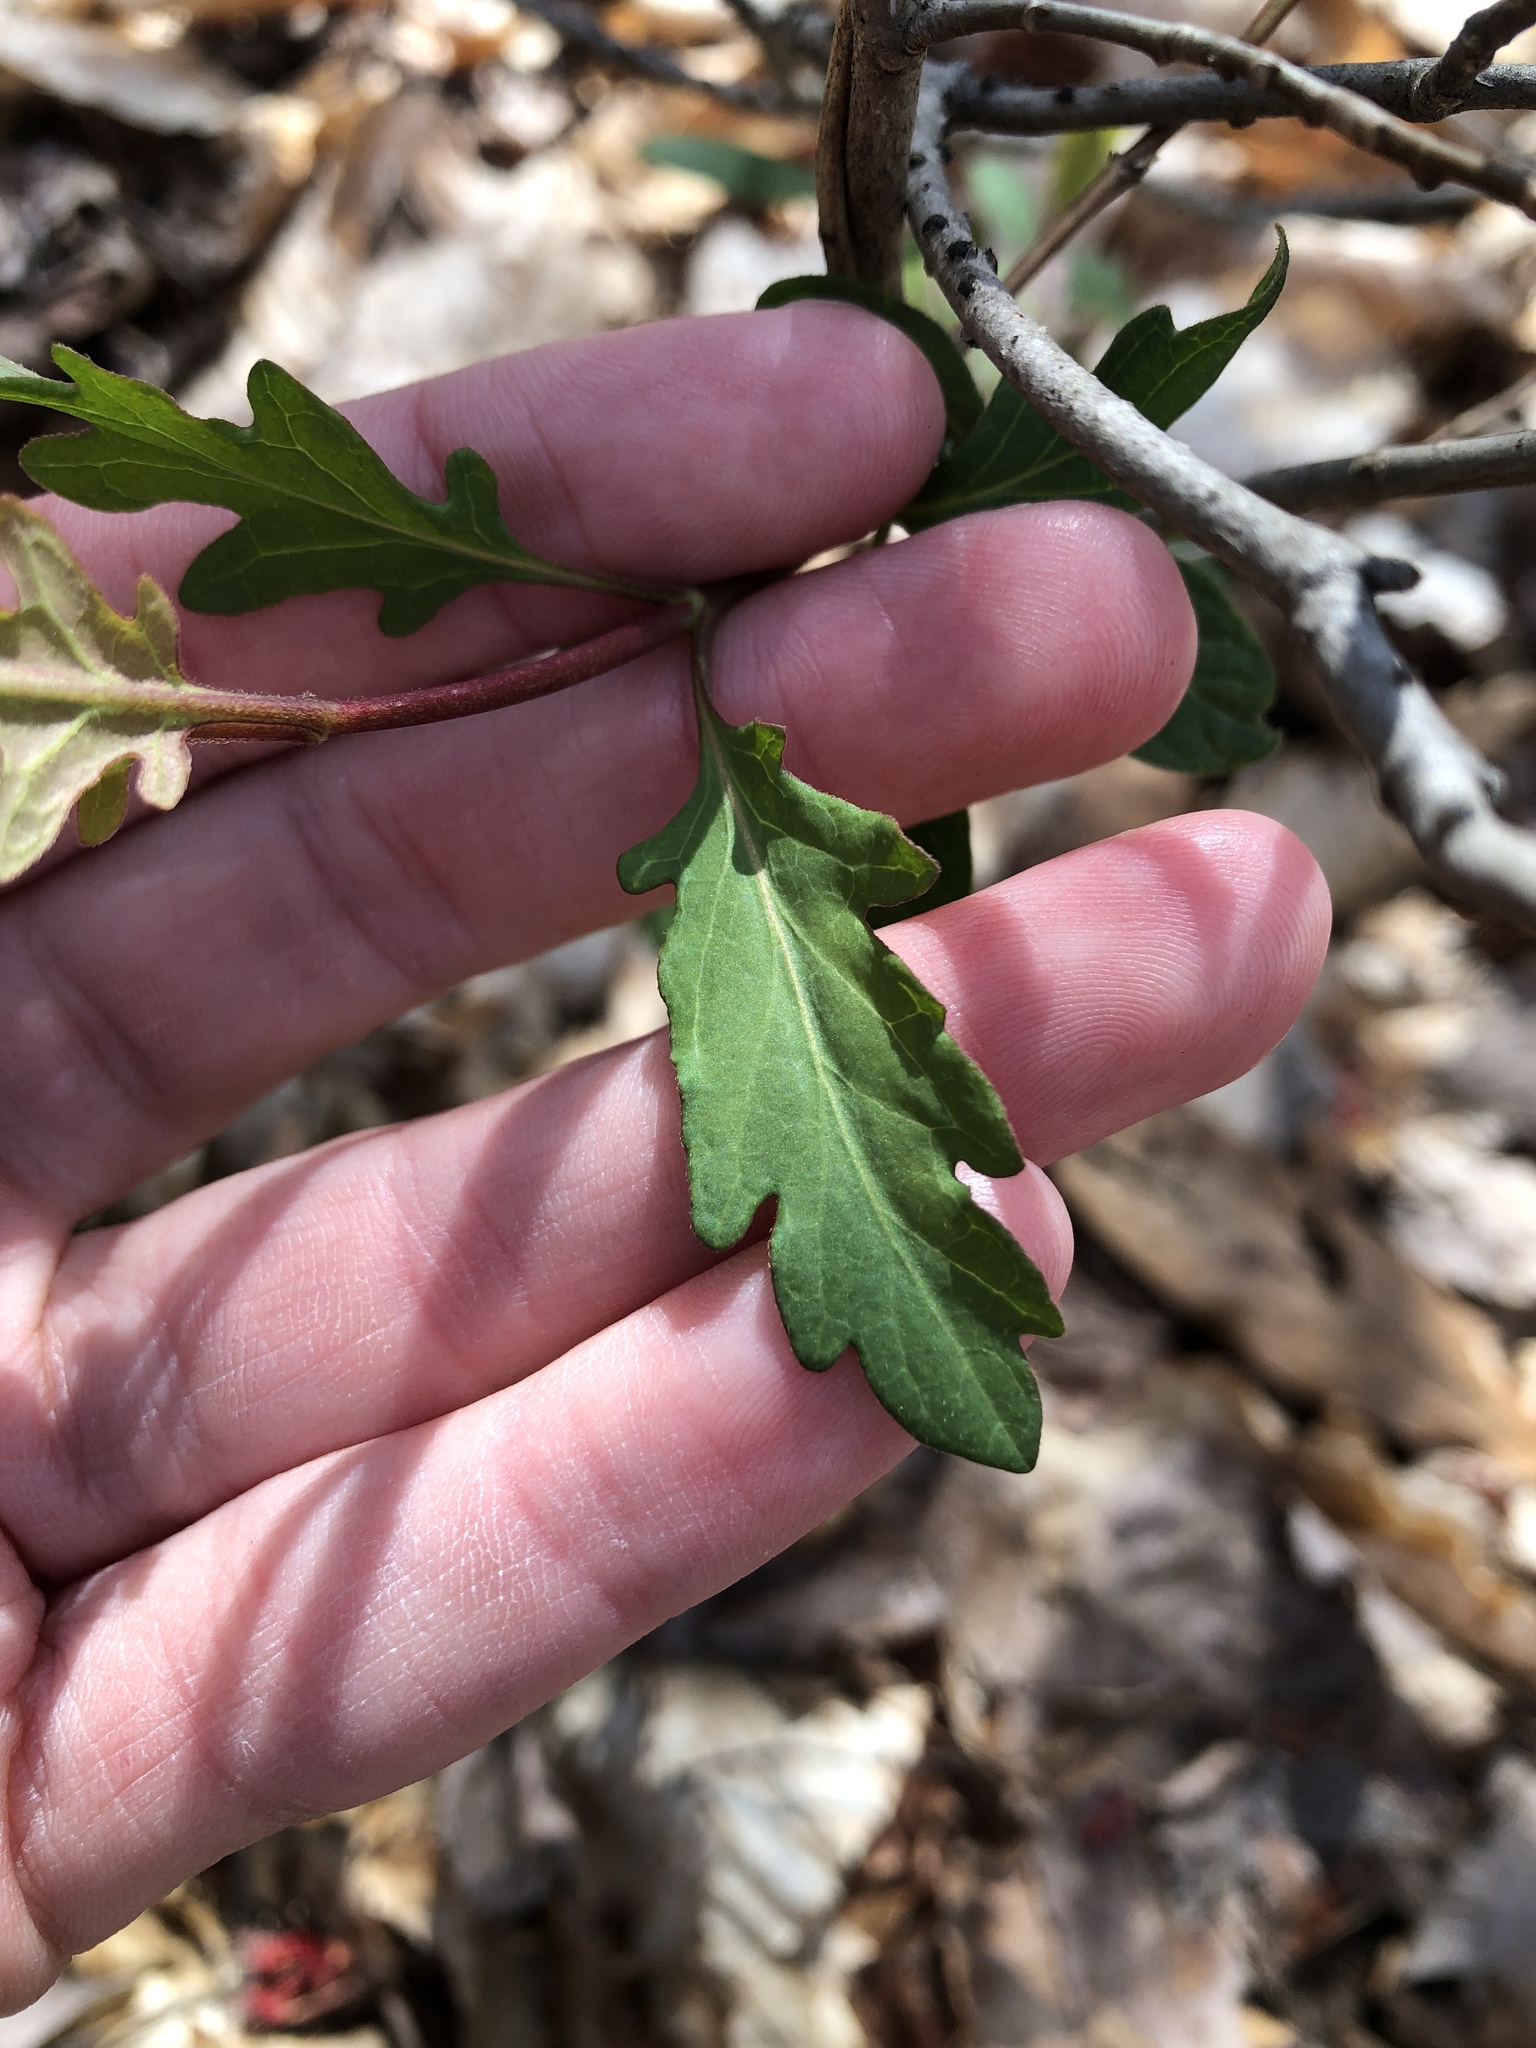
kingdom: Plantae
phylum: Tracheophyta
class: Magnoliopsida
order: Dipsacales
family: Caprifoliaceae
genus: Lonicera
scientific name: Lonicera japonica
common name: Japanese honeysuckle
